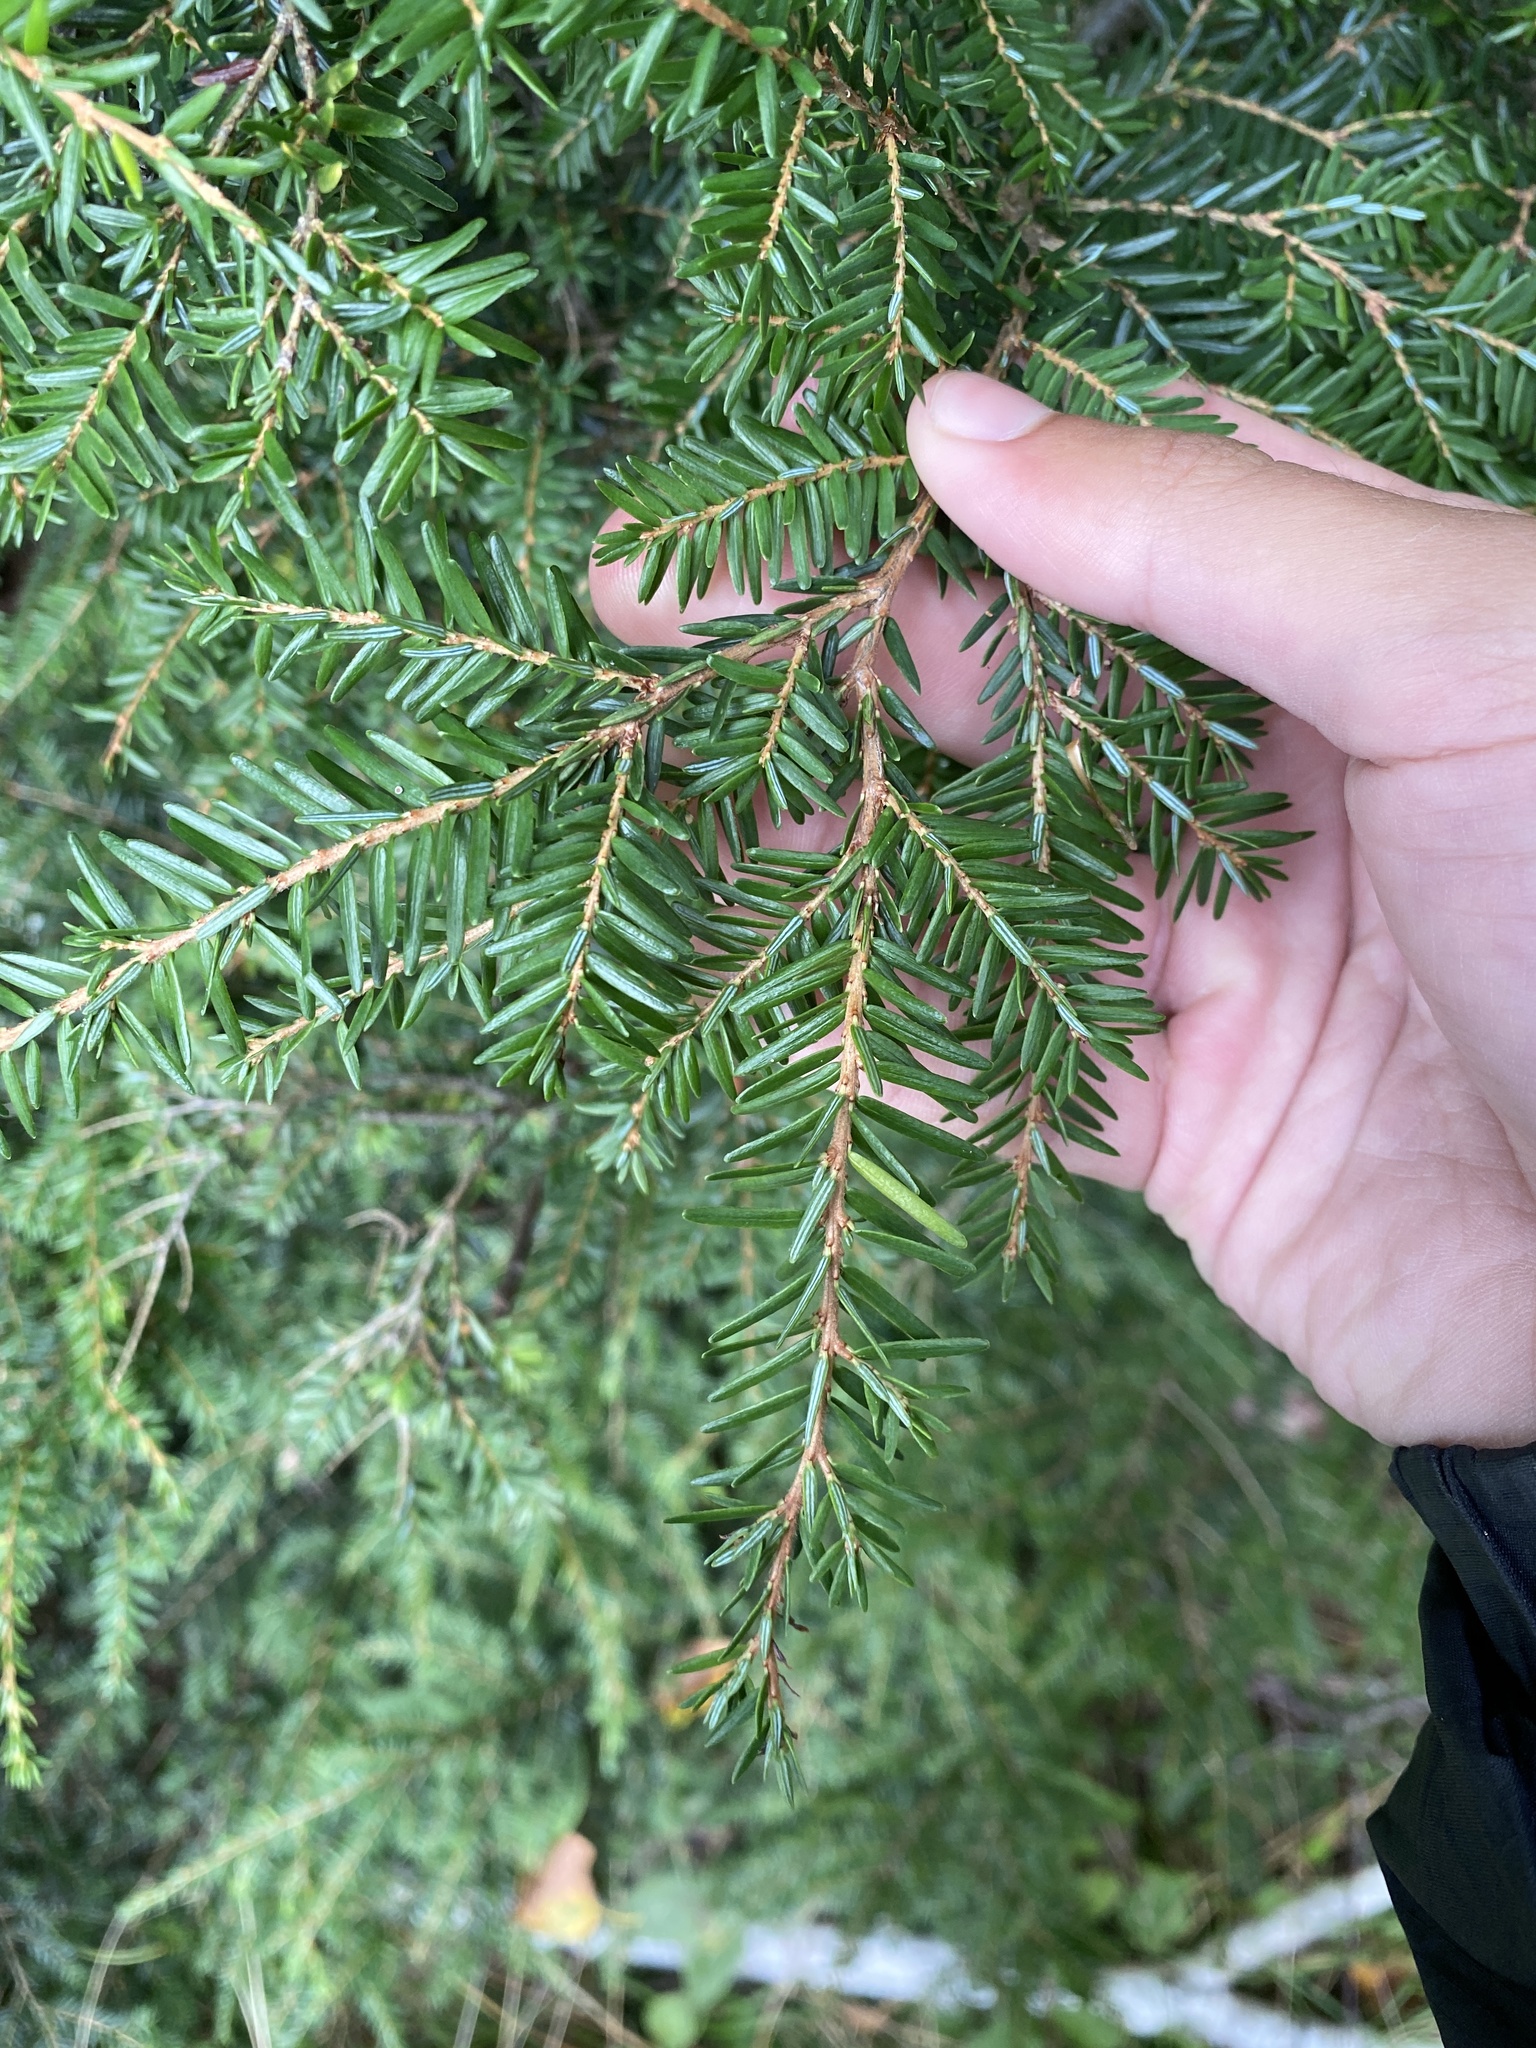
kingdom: Plantae
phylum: Tracheophyta
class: Pinopsida
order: Pinales
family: Pinaceae
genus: Tsuga
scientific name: Tsuga canadensis
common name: Eastern hemlock
